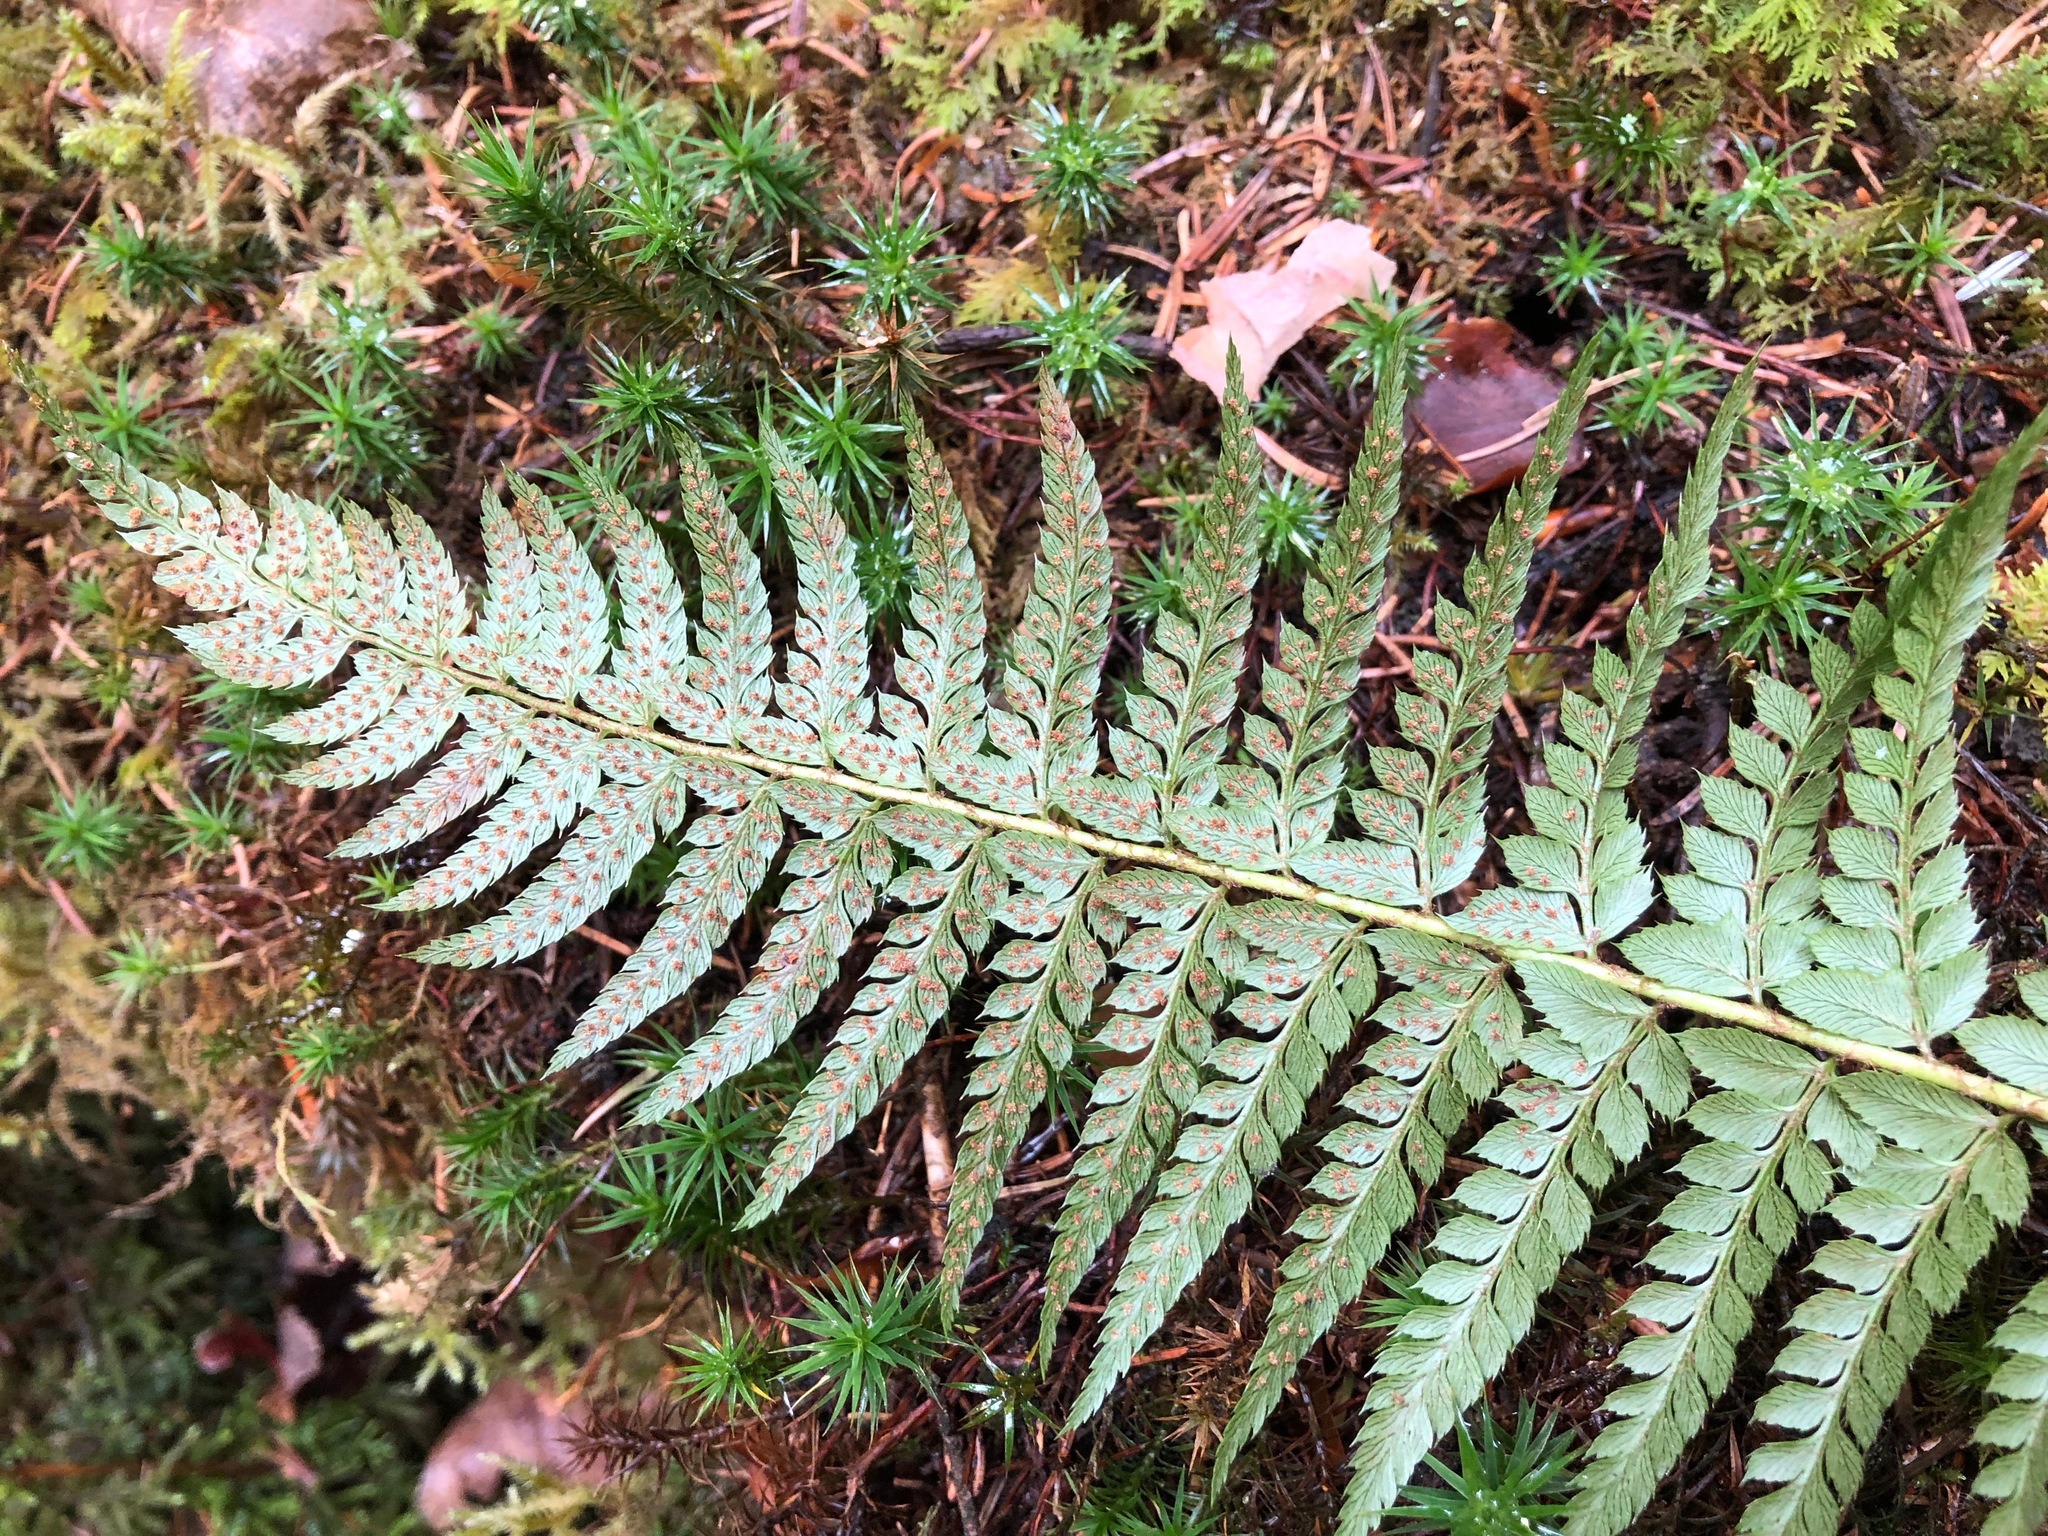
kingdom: Plantae
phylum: Tracheophyta
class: Polypodiopsida
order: Polypodiales
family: Dryopteridaceae
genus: Polystichum
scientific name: Polystichum aculeatum
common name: Hard shield-fern
